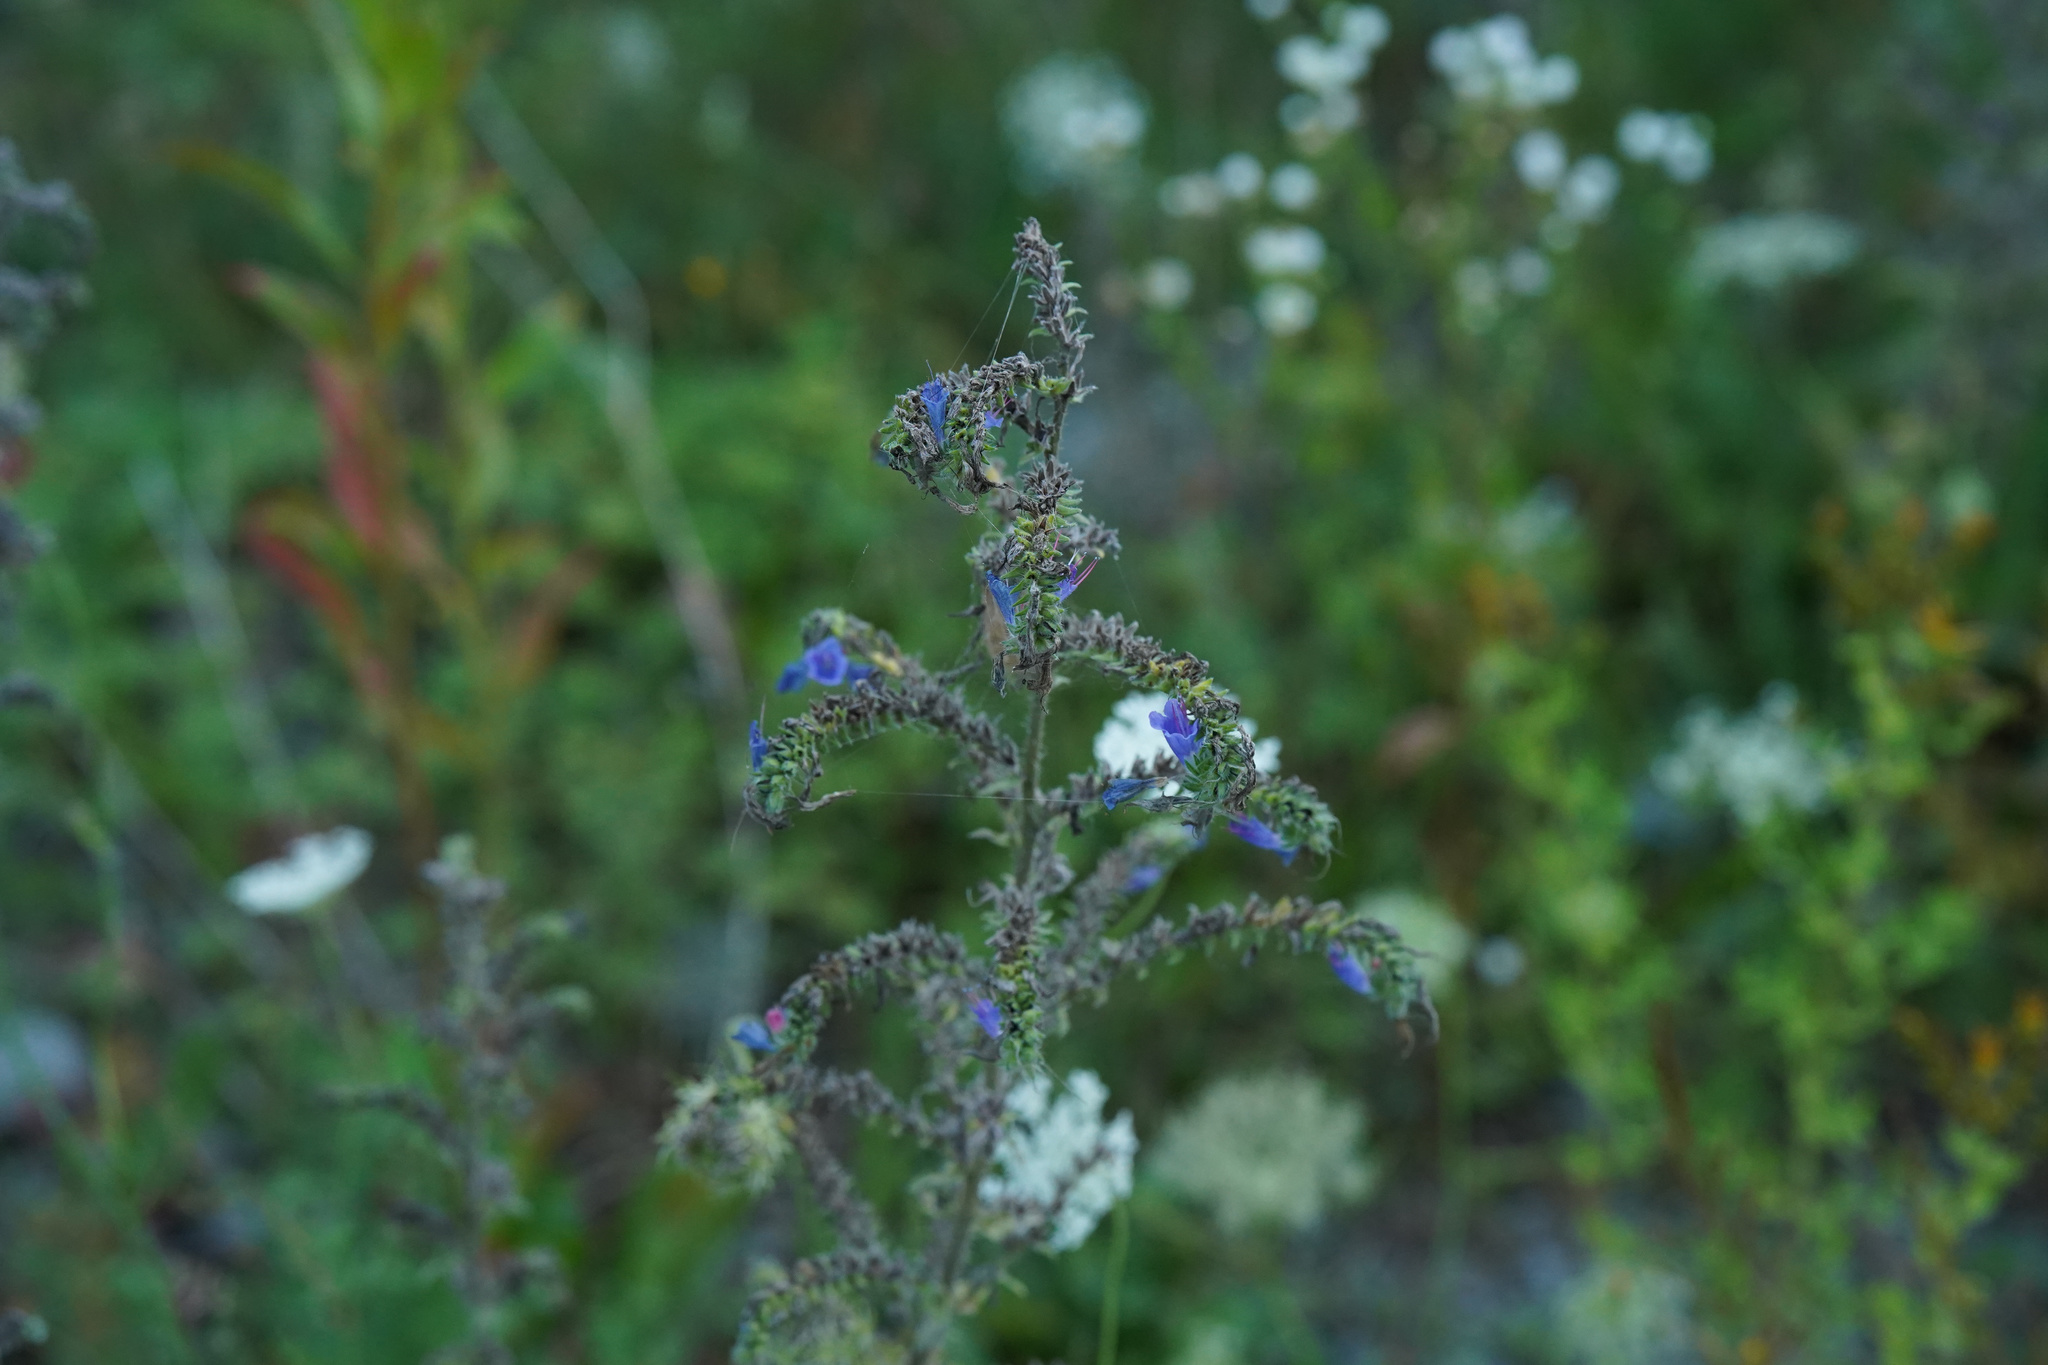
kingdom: Plantae
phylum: Tracheophyta
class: Magnoliopsida
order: Boraginales
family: Boraginaceae
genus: Echium
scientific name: Echium vulgare
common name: Common viper's bugloss
